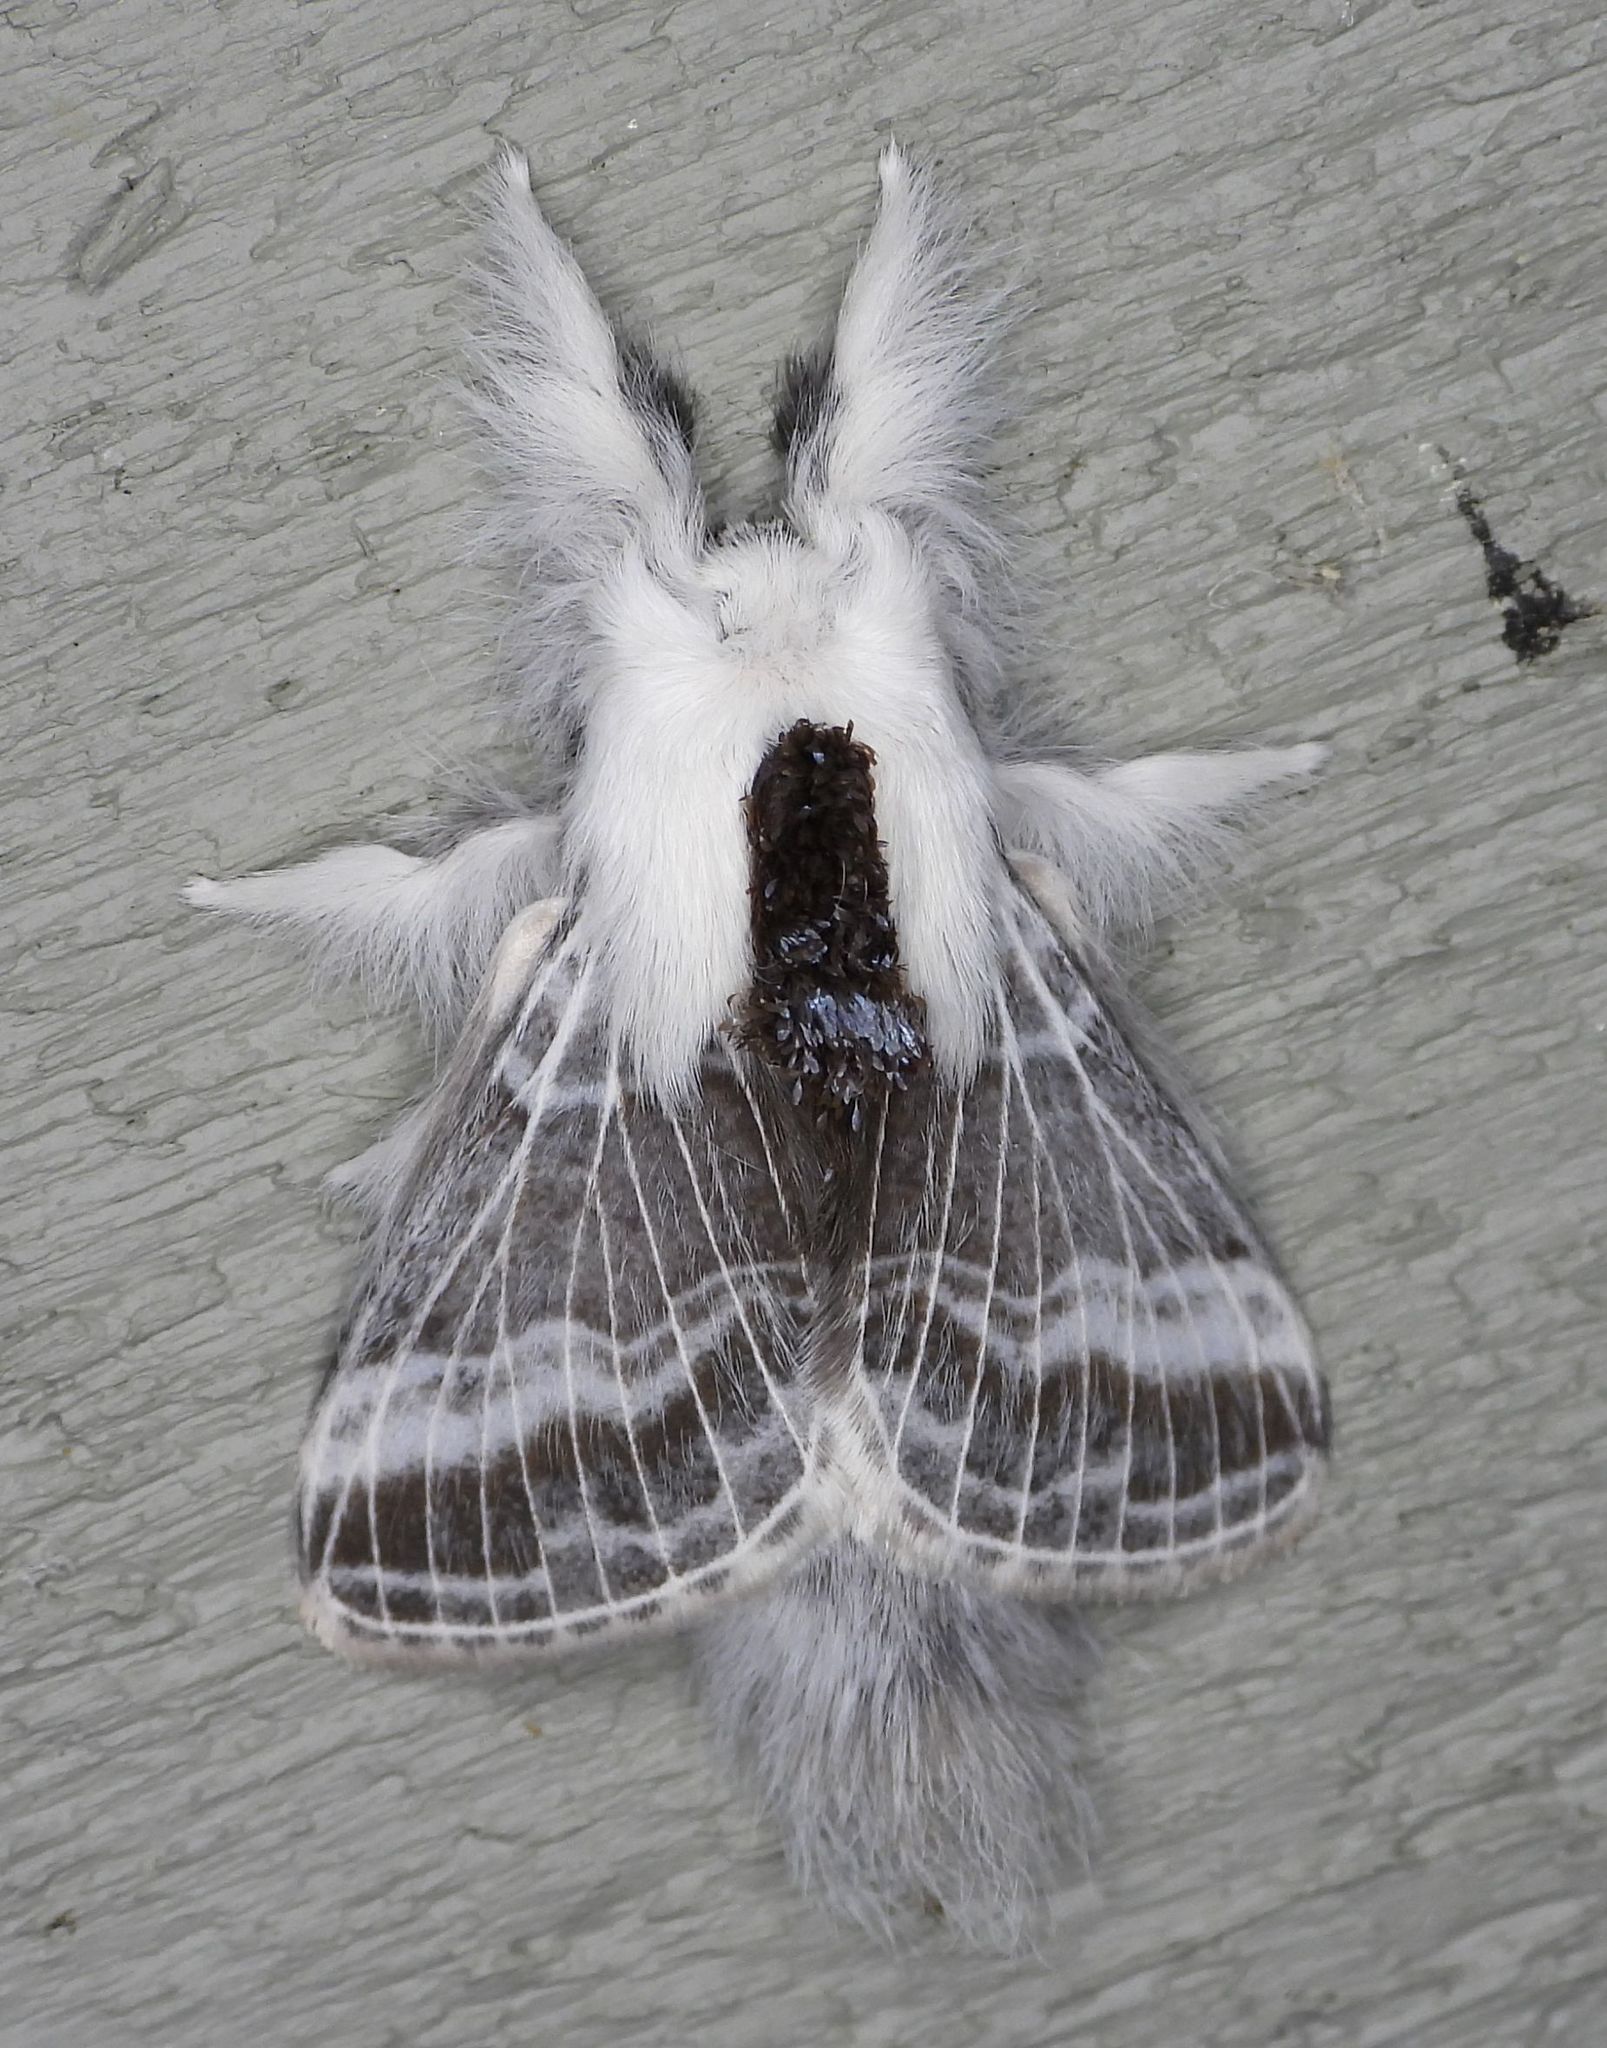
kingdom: Animalia
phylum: Arthropoda
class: Insecta
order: Lepidoptera
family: Lasiocampidae
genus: Tolype
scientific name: Tolype velleda
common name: Large tolype moth
